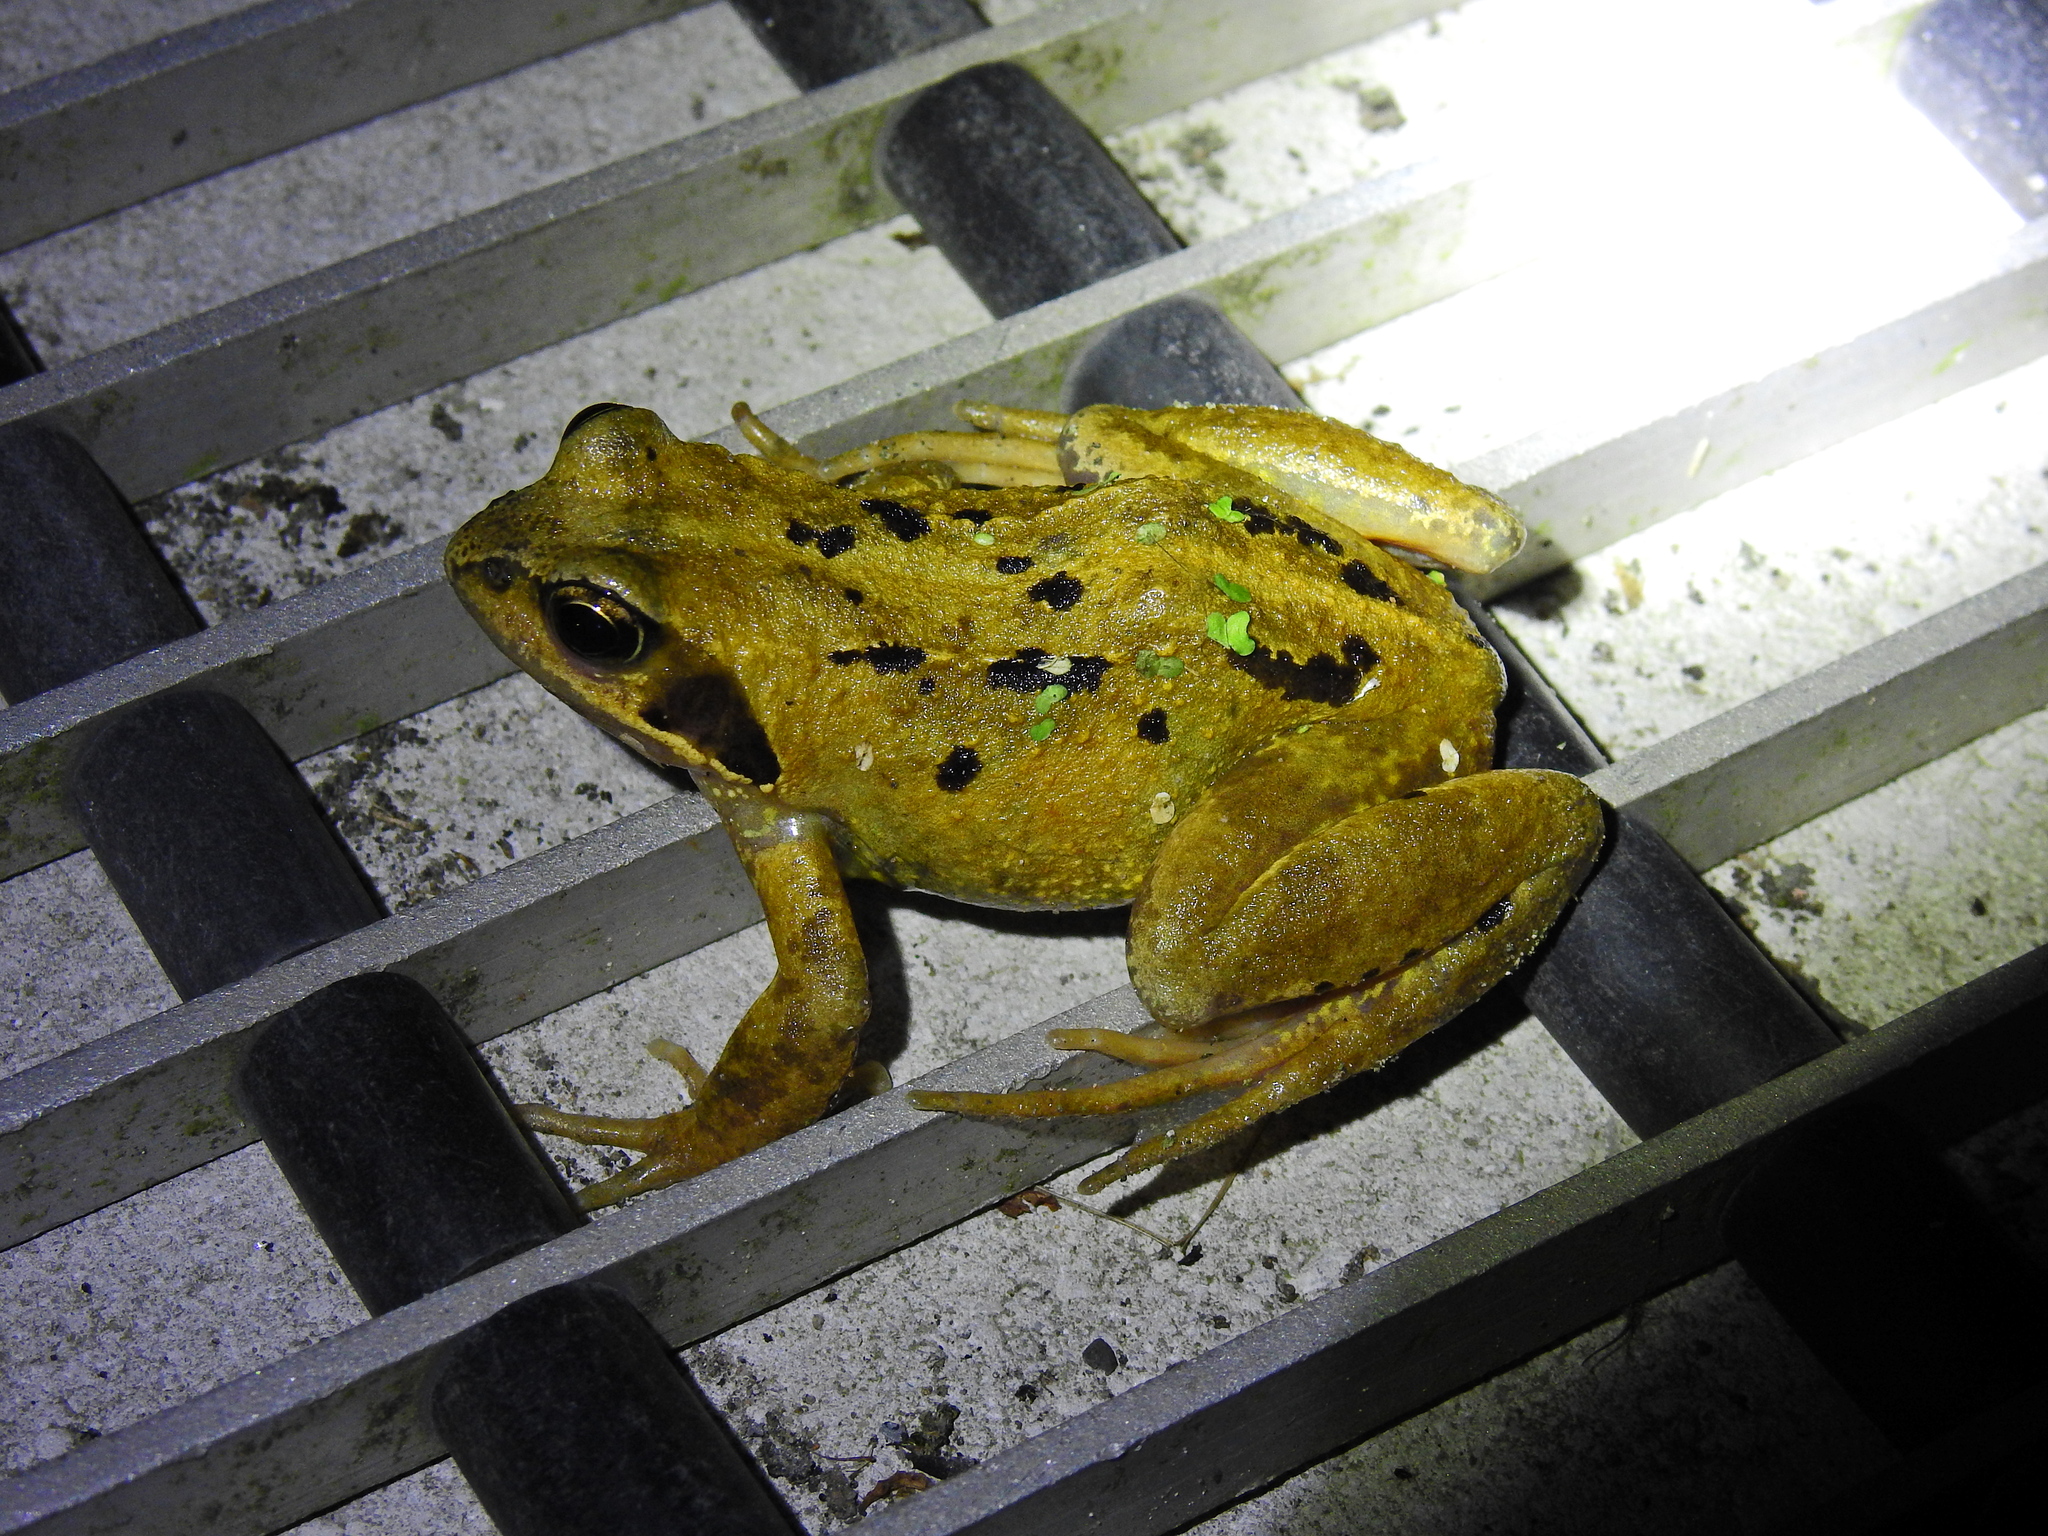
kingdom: Animalia
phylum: Chordata
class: Amphibia
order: Anura
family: Ranidae
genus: Rana
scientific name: Rana temporaria
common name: Common frog
